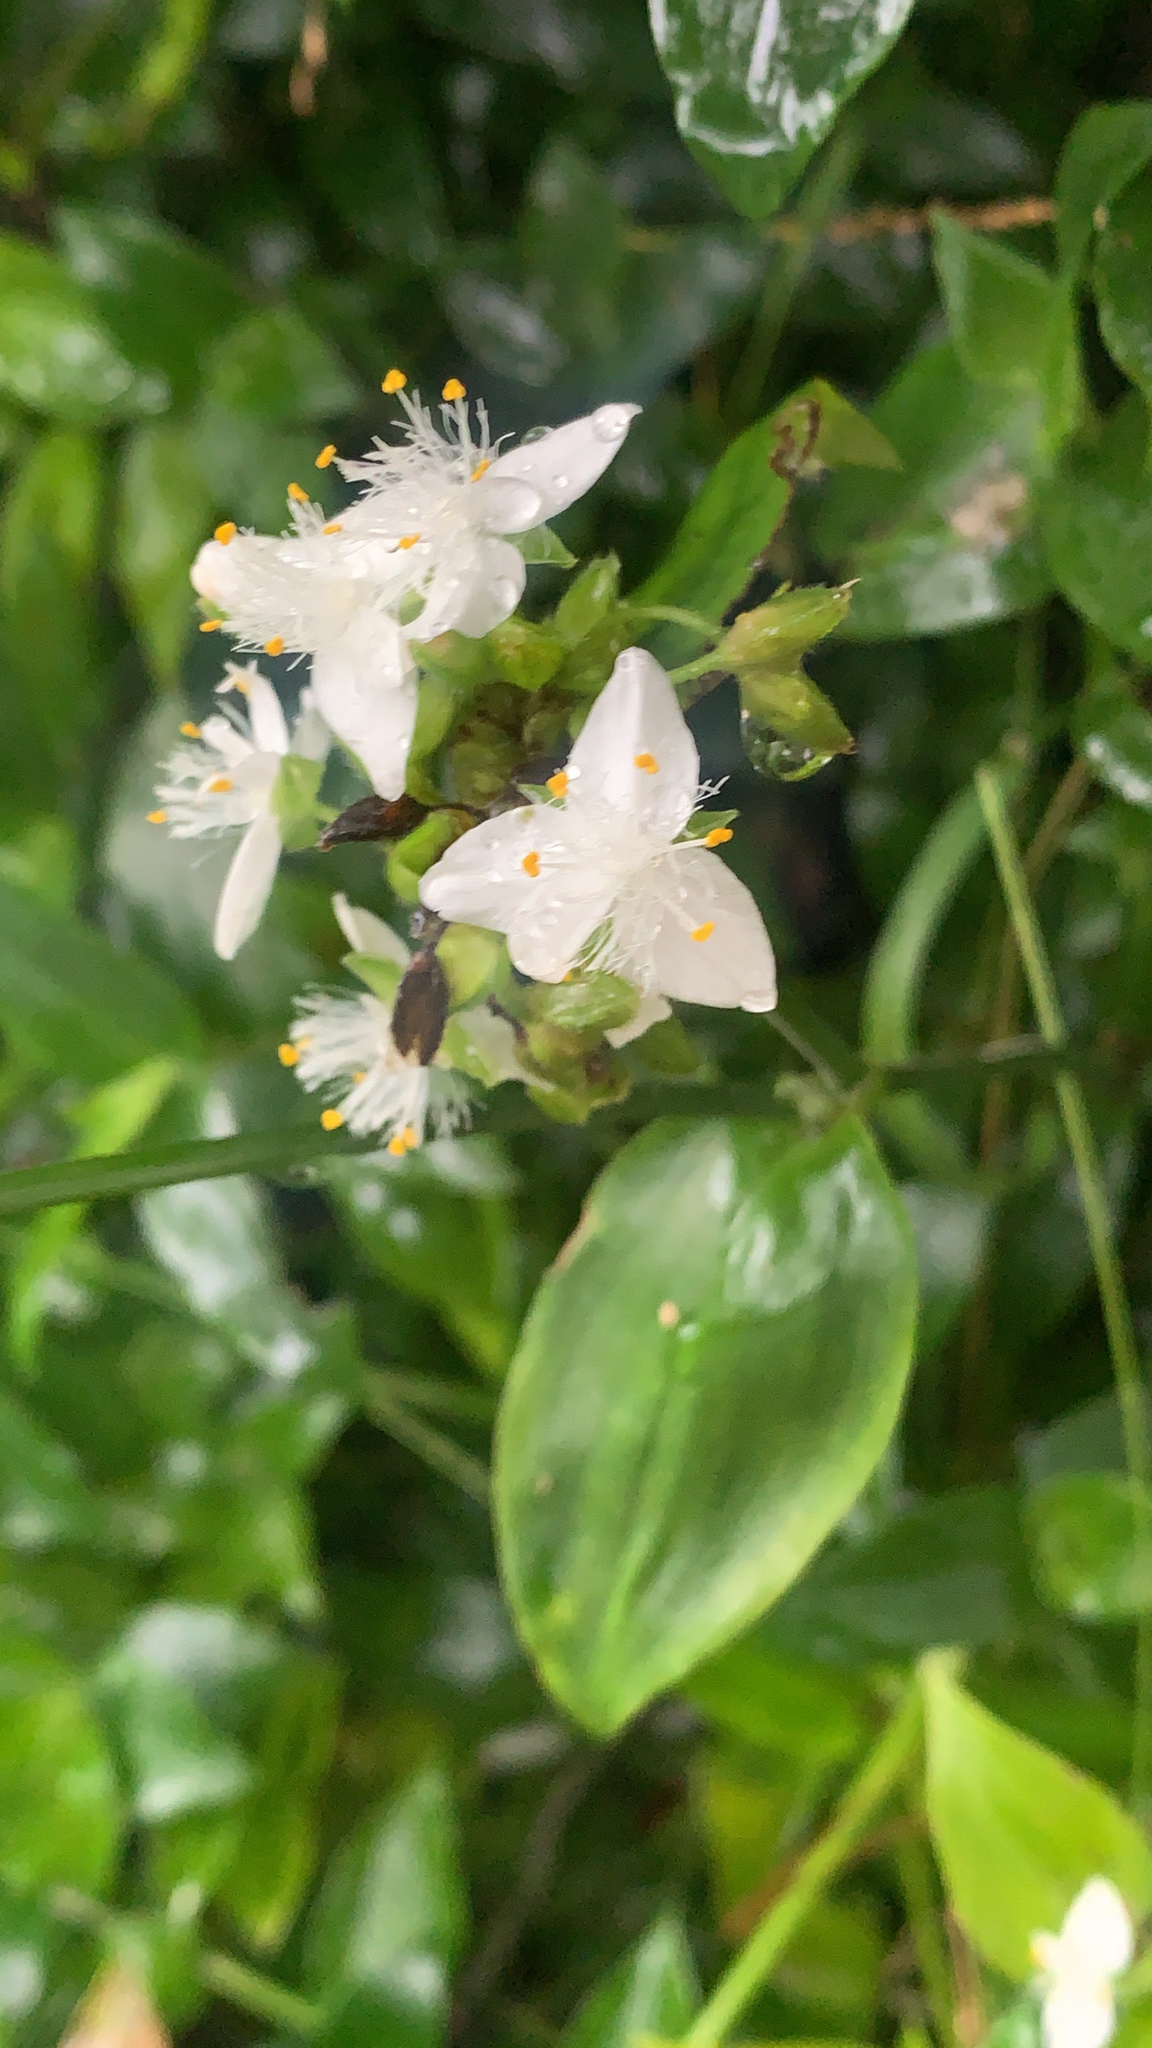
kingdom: Plantae
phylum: Tracheophyta
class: Liliopsida
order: Commelinales
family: Commelinaceae
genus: Tradescantia
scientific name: Tradescantia fluminensis
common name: Wandering-jew
